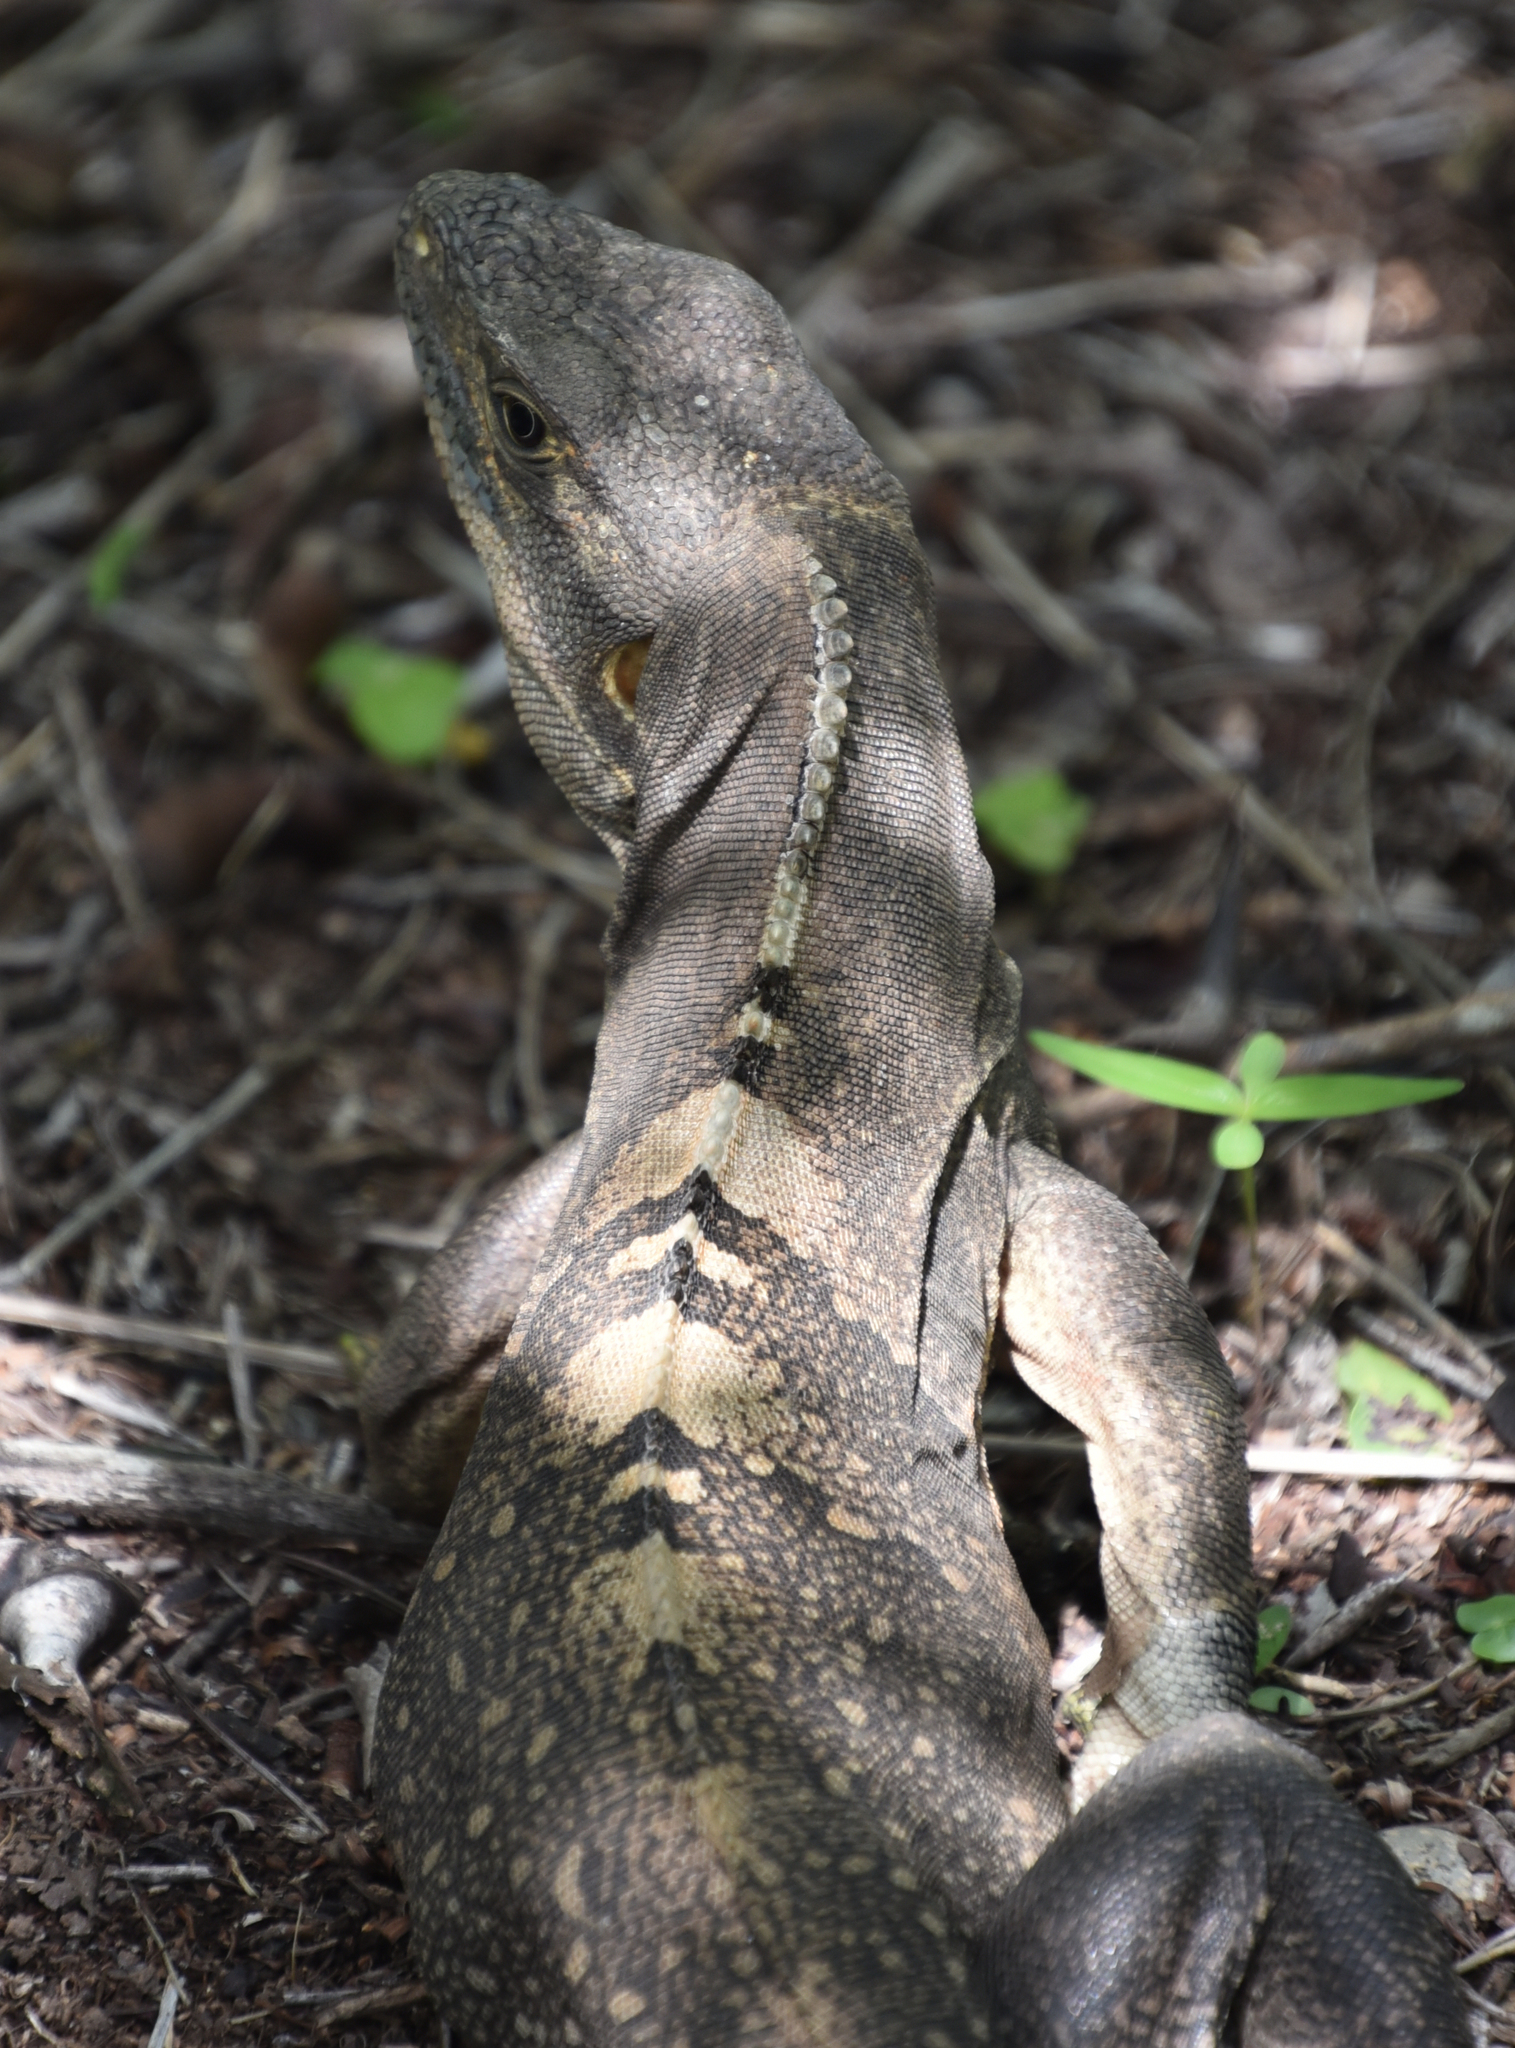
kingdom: Animalia
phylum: Chordata
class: Squamata
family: Iguanidae
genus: Ctenosaura
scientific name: Ctenosaura similis
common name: Black spiny-tailed iguana
